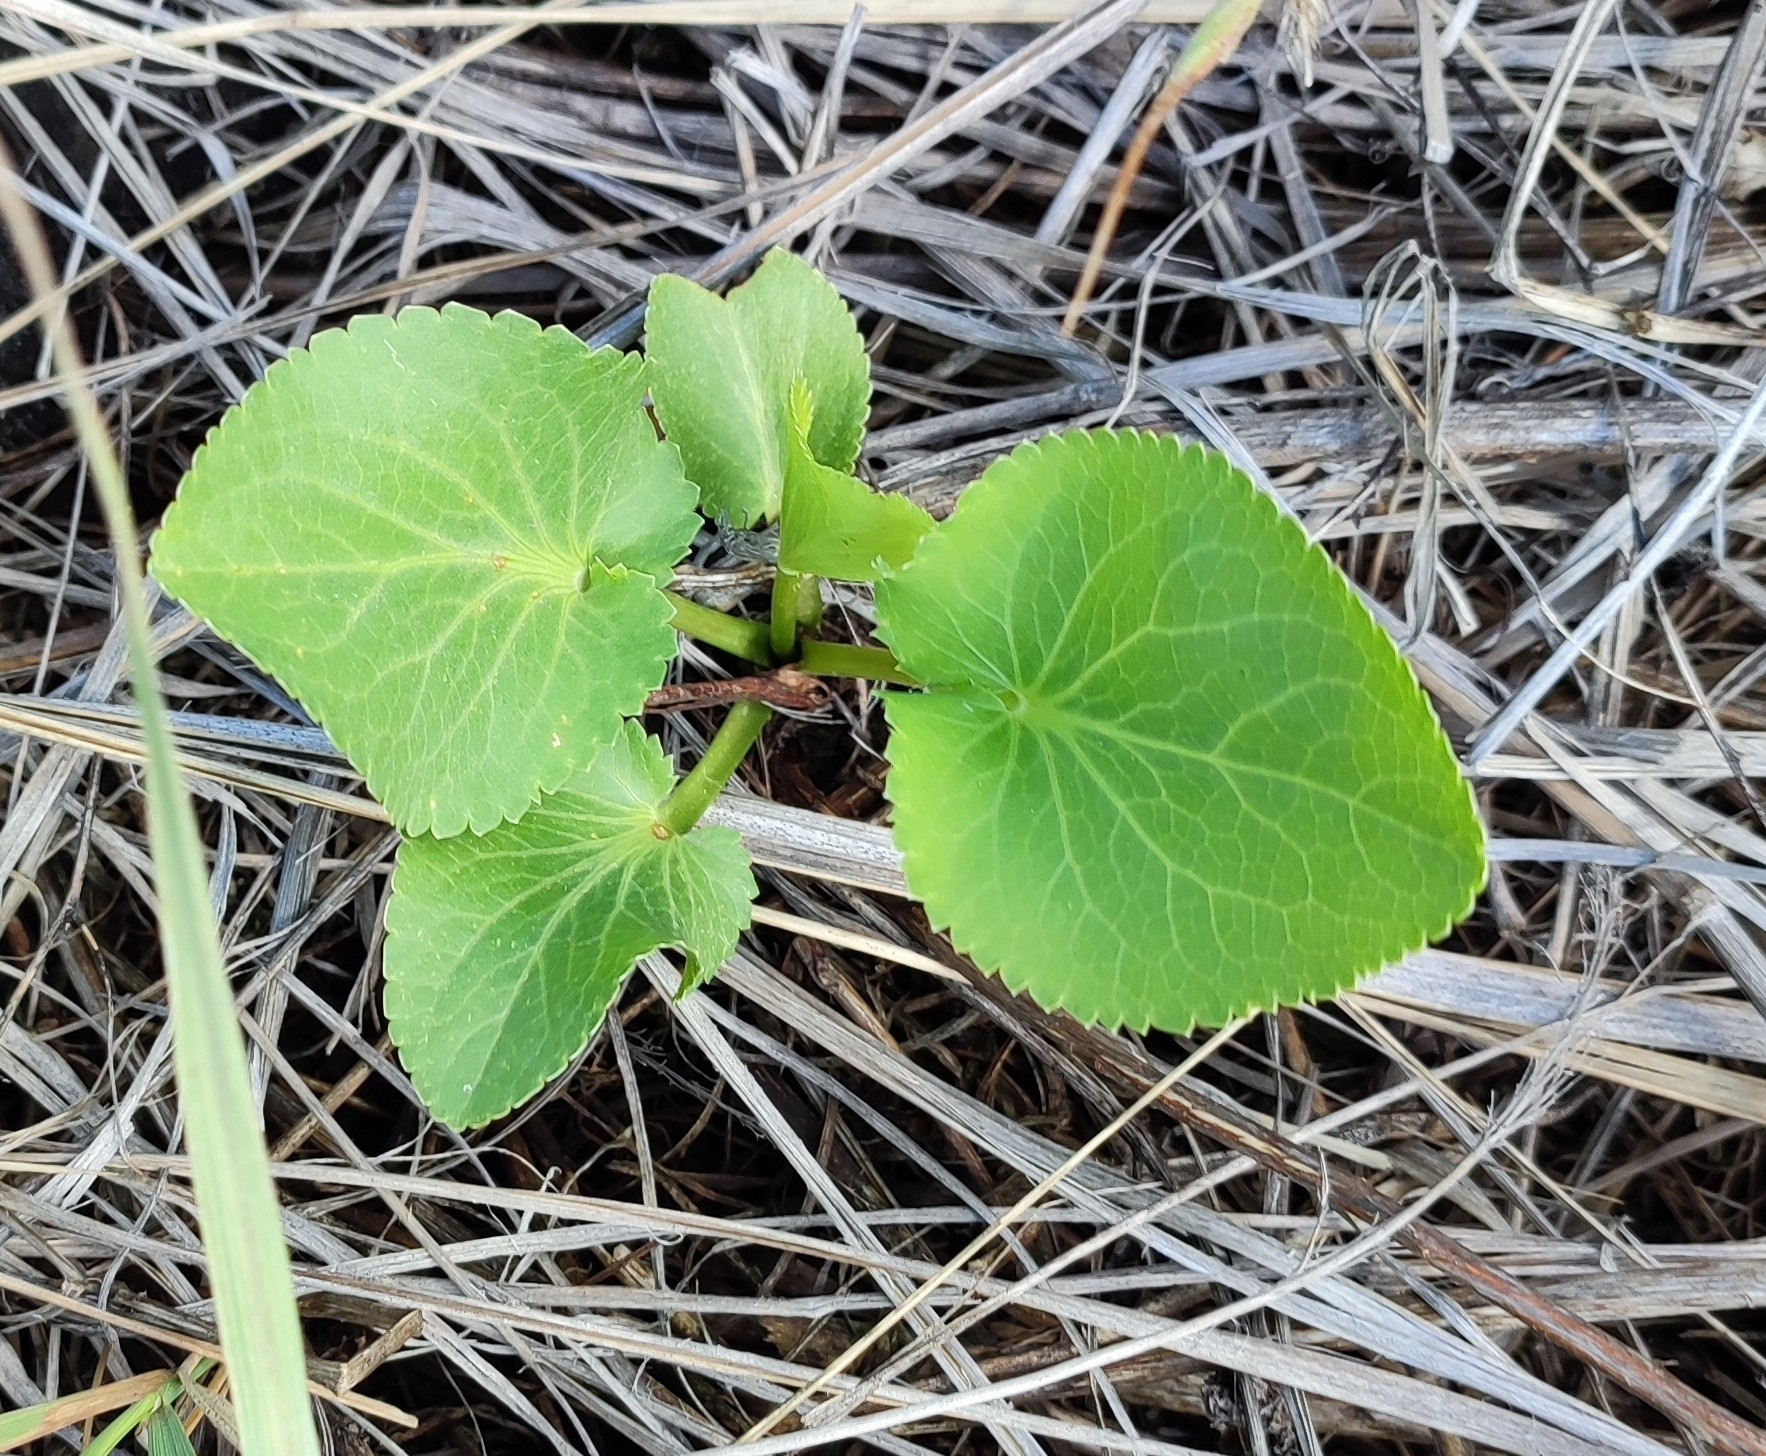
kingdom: Plantae
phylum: Tracheophyta
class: Magnoliopsida
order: Apiales
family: Apiaceae
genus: Eryngium
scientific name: Eryngium planum
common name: Blue eryngo
